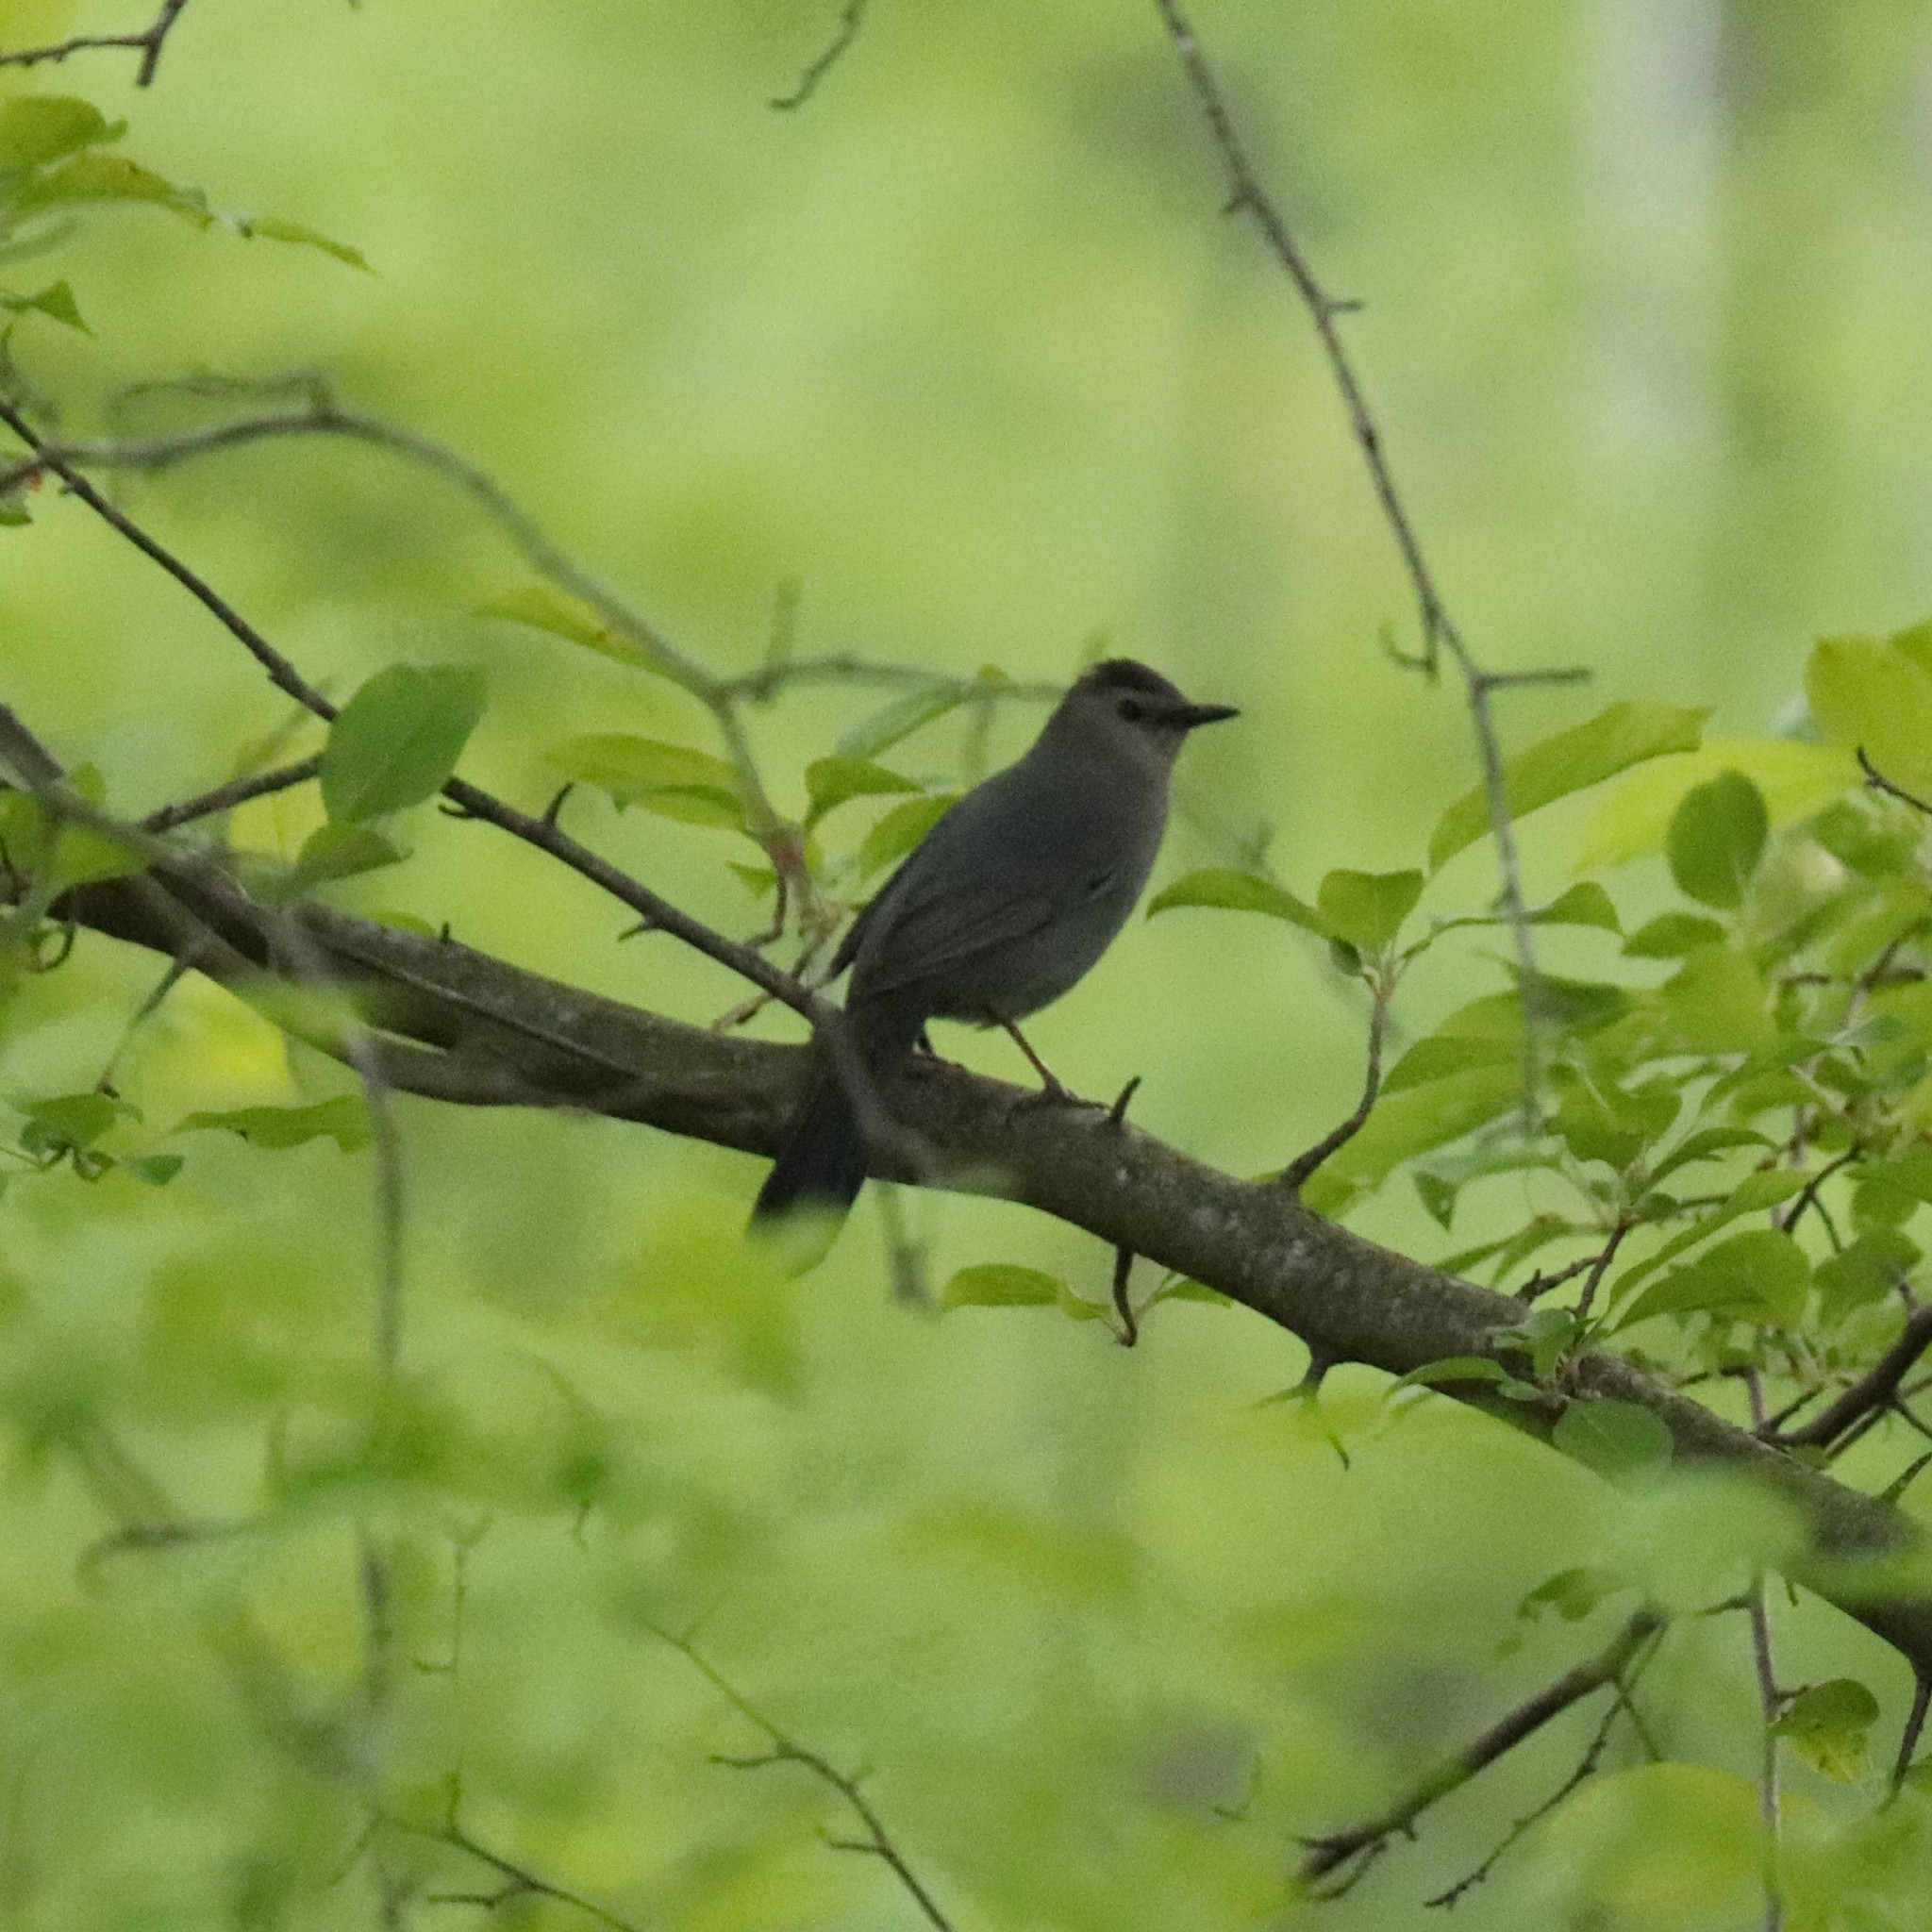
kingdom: Animalia
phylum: Chordata
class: Aves
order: Passeriformes
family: Mimidae
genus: Dumetella
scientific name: Dumetella carolinensis
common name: Gray catbird
